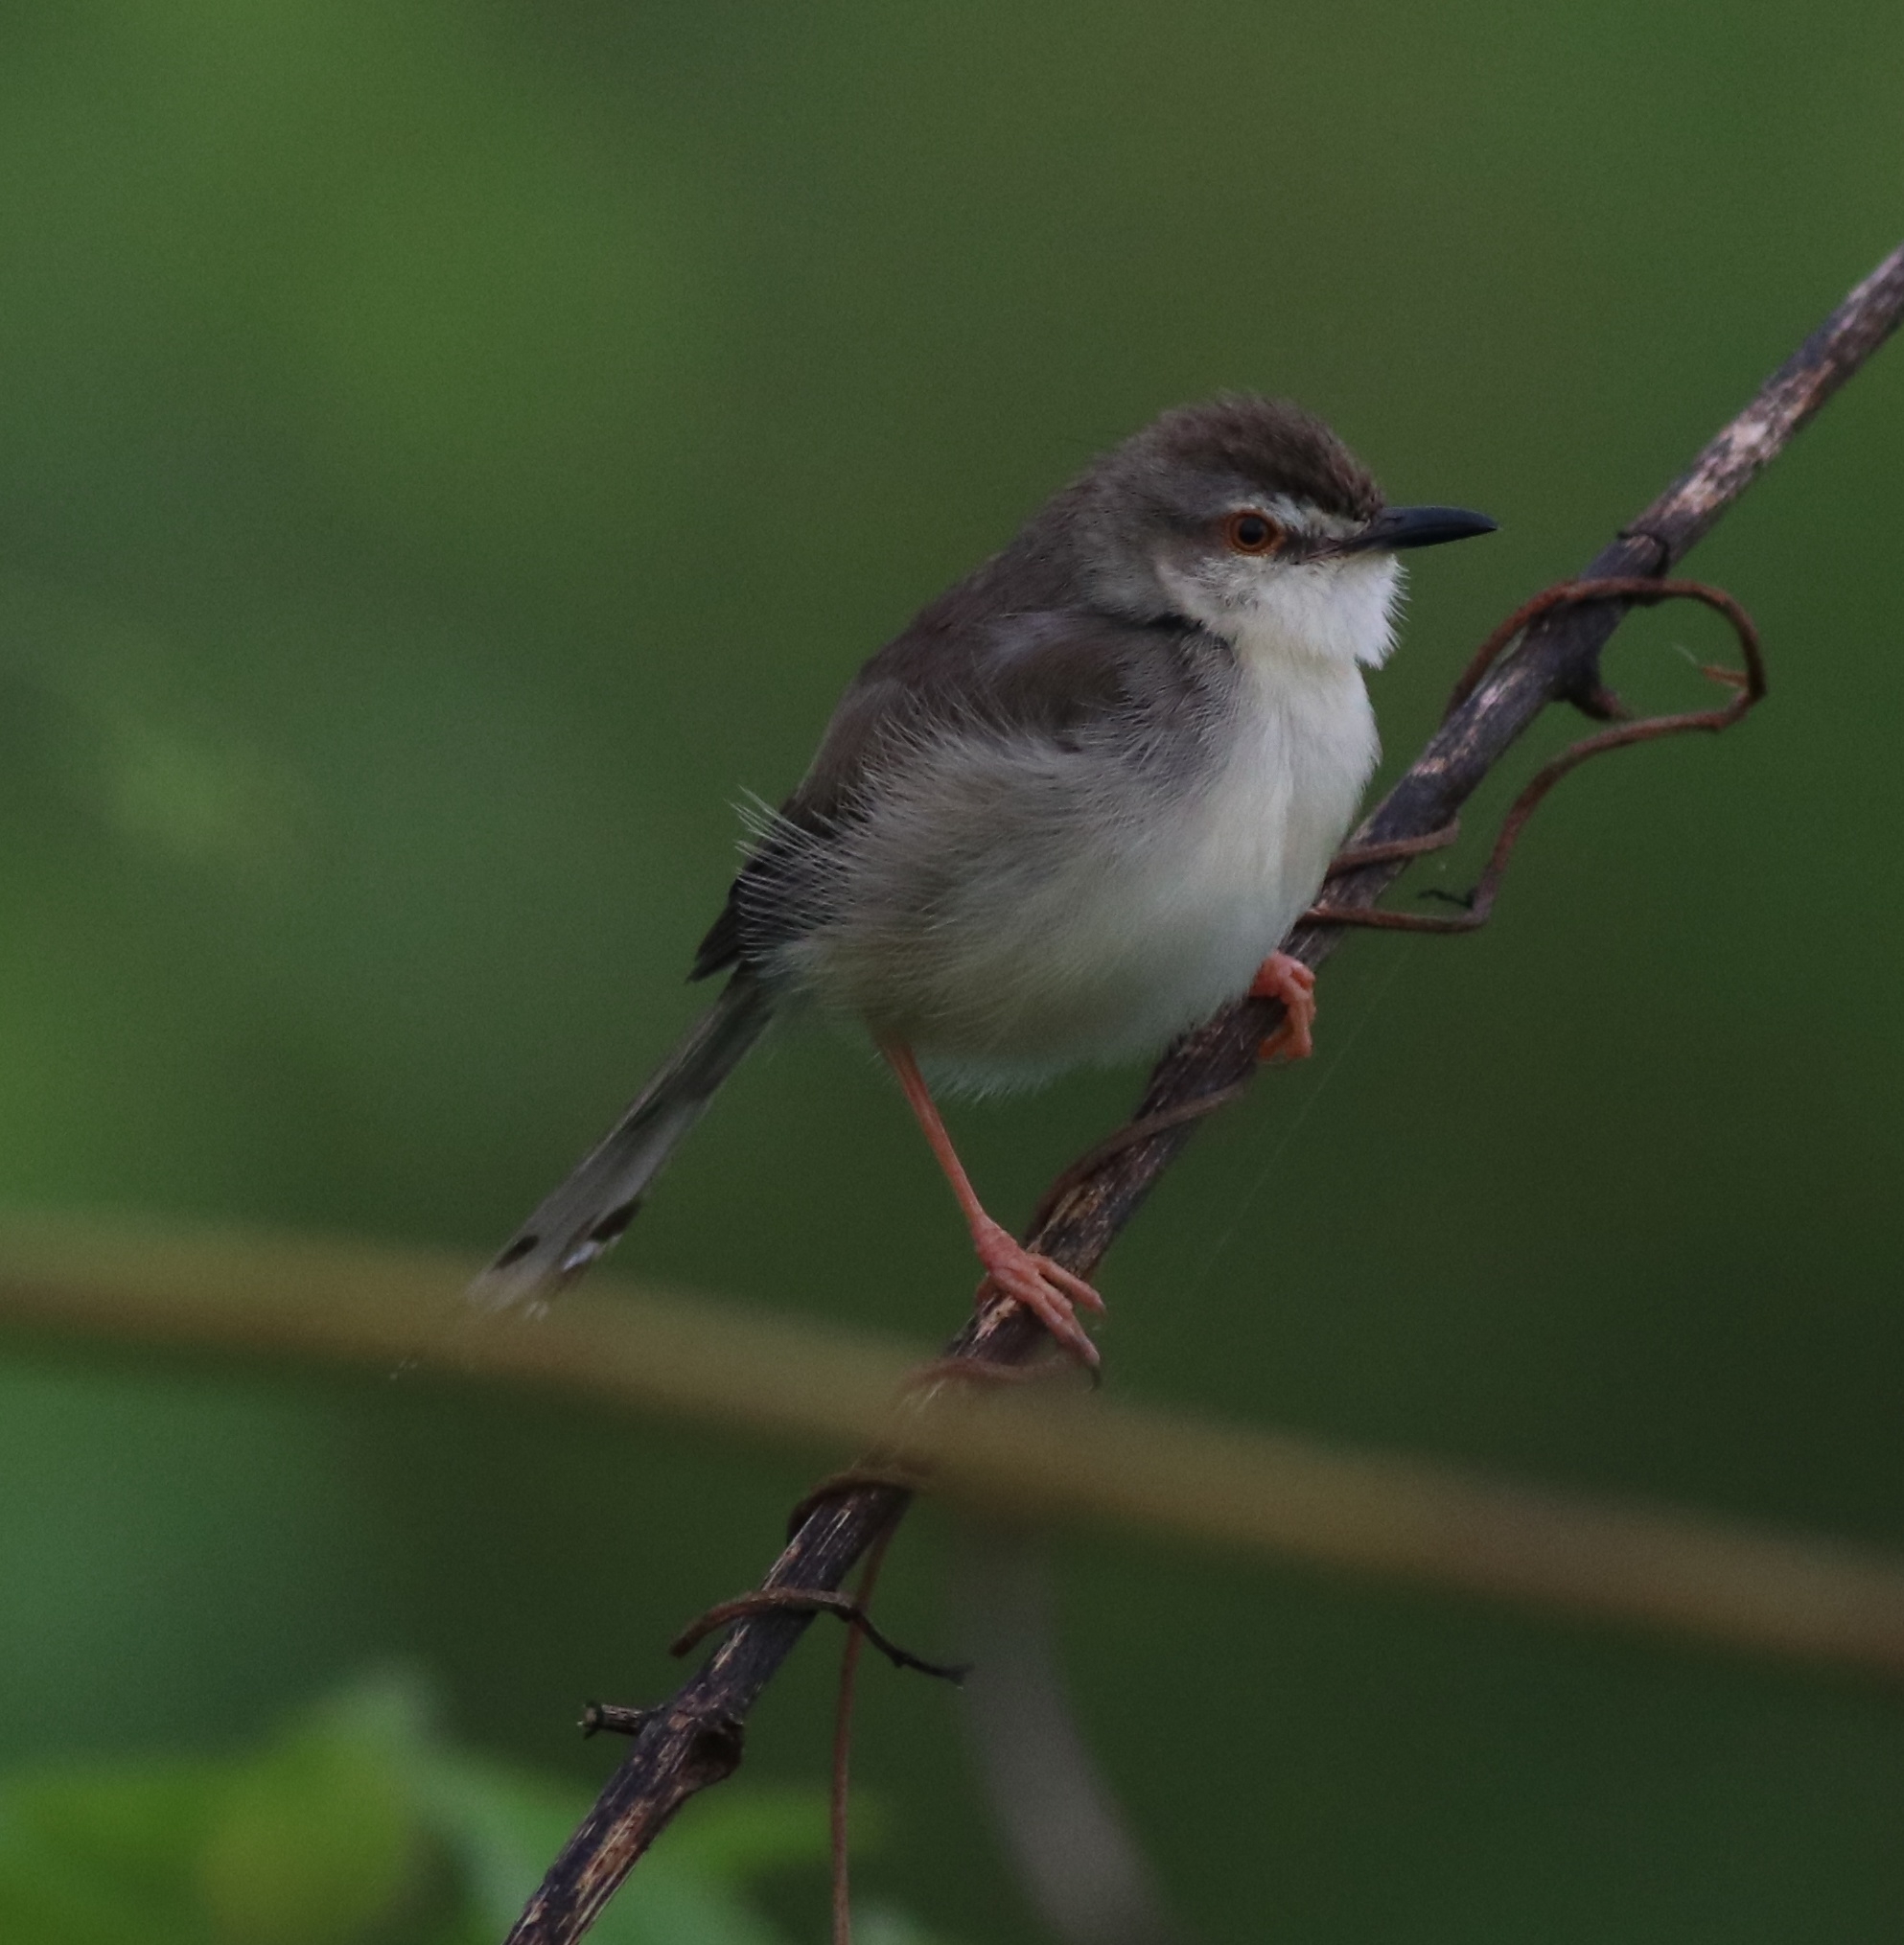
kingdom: Animalia
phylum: Chordata
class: Aves
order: Passeriformes
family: Cisticolidae
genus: Prinia
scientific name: Prinia inornata
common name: Plain prinia
